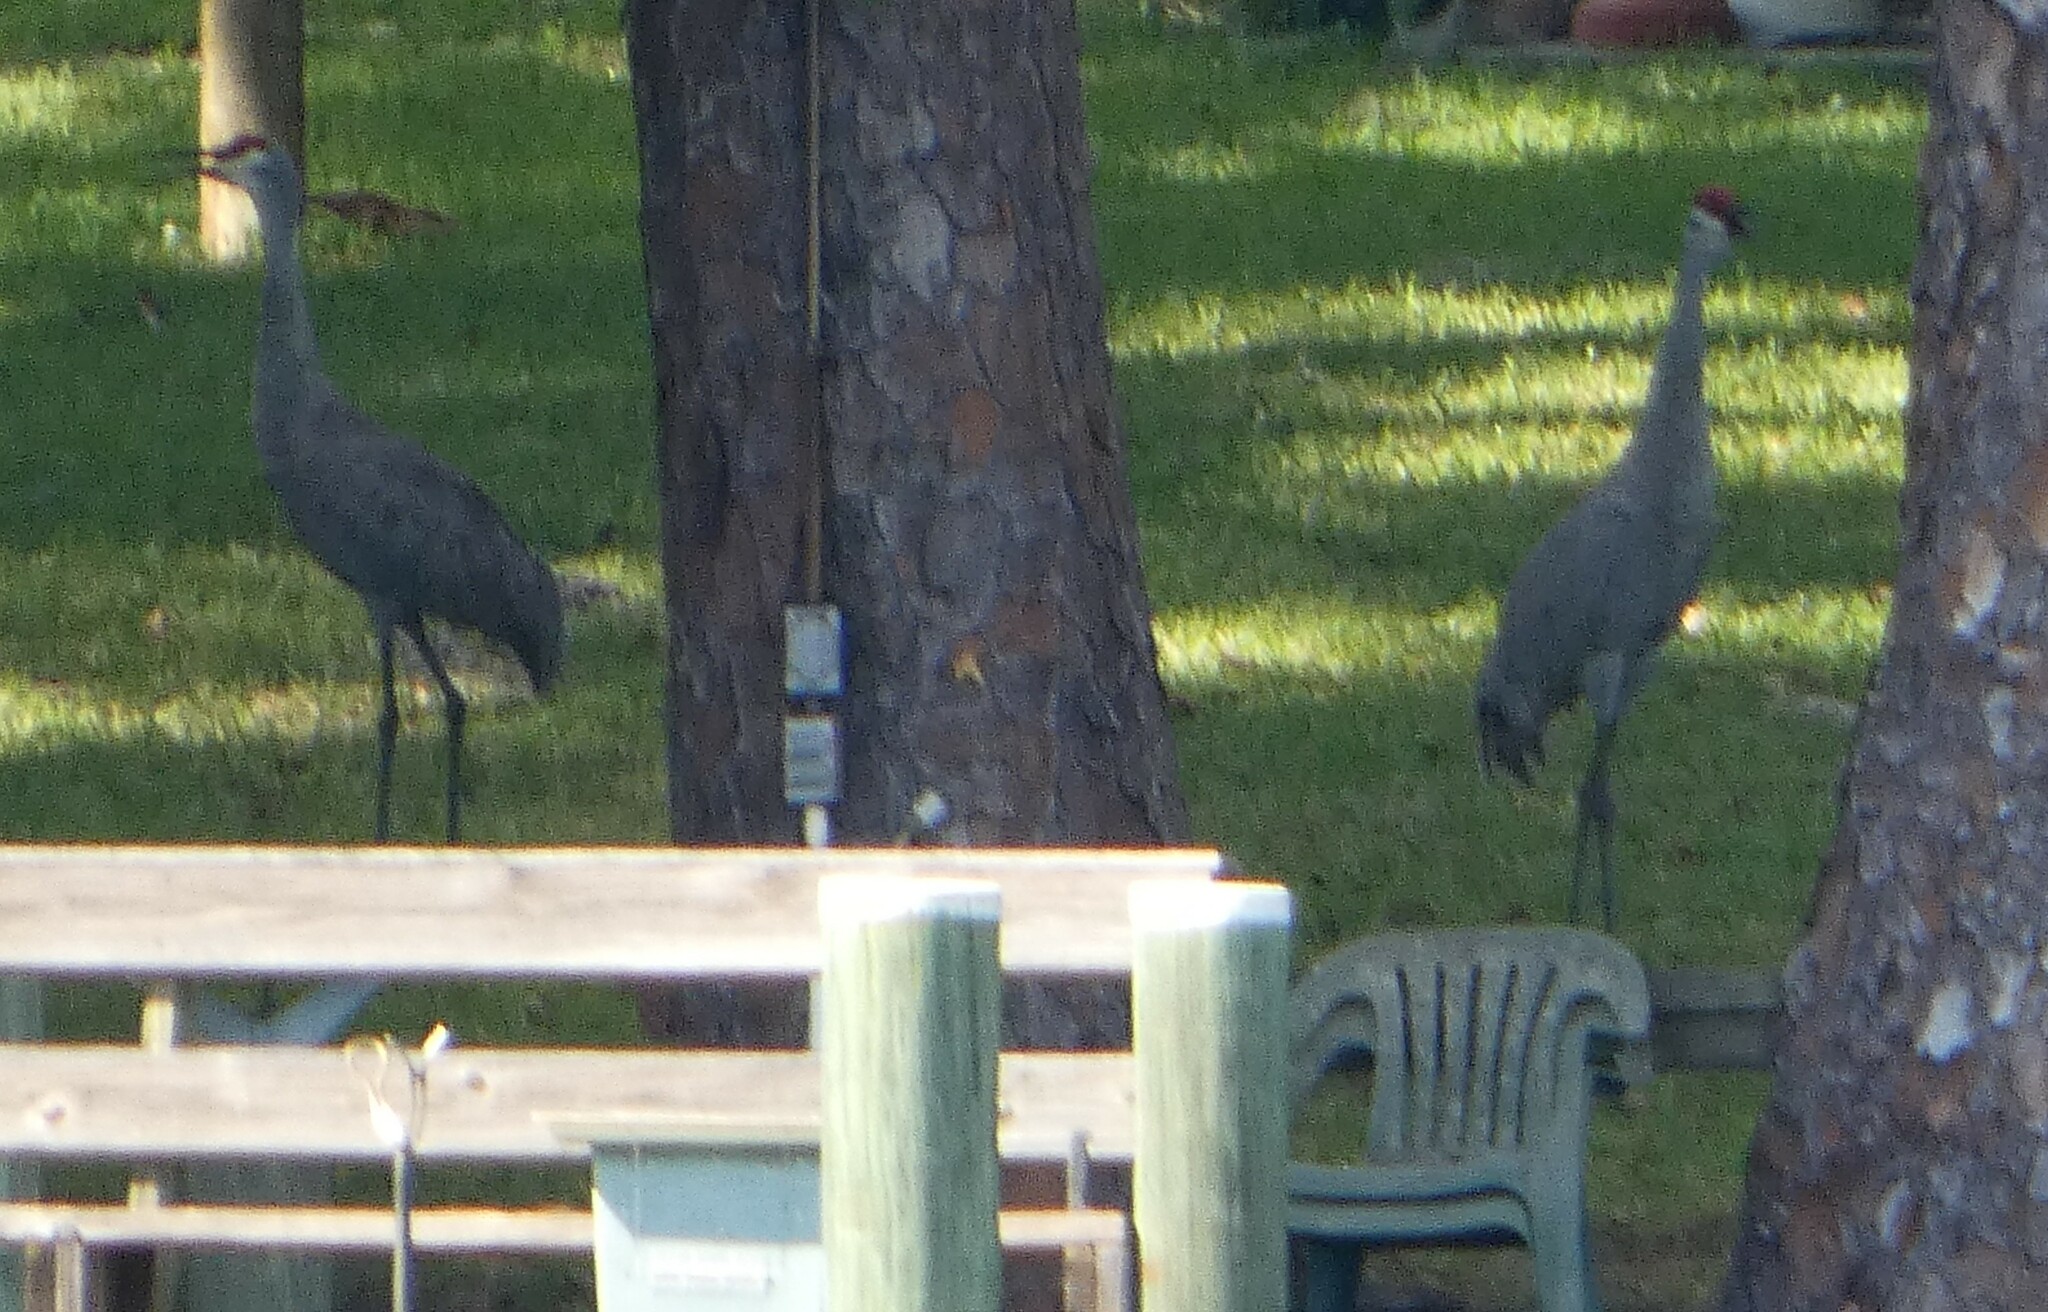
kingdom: Animalia
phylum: Chordata
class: Aves
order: Gruiformes
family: Gruidae
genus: Grus
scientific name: Grus canadensis
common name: Sandhill crane
